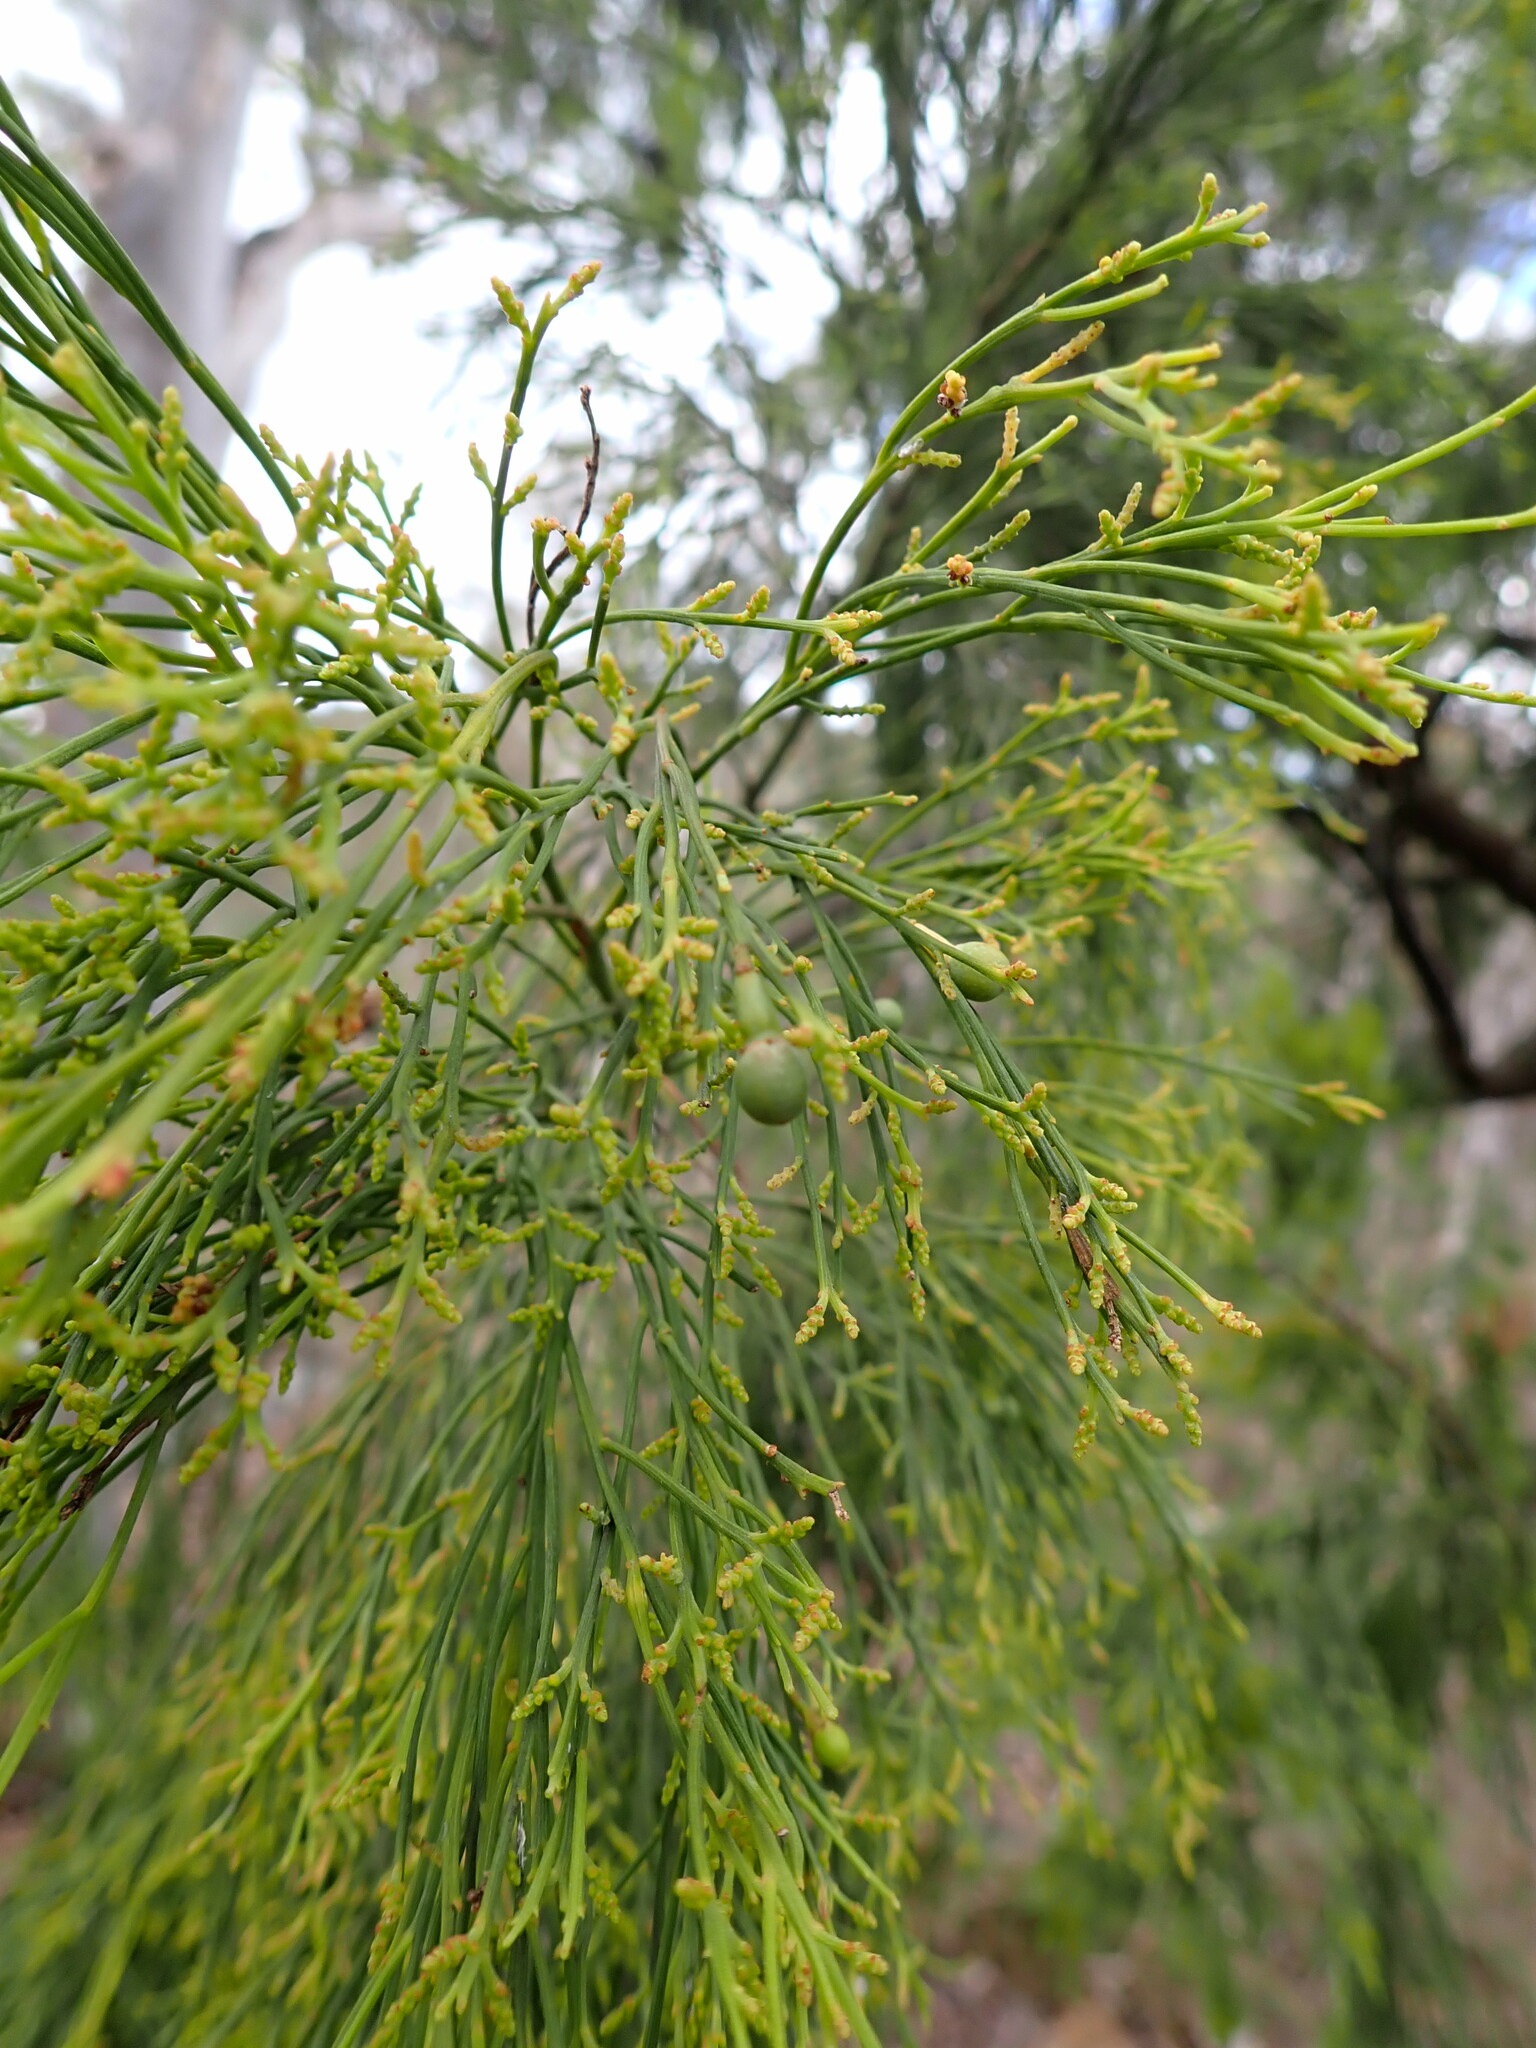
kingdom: Plantae
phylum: Tracheophyta
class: Magnoliopsida
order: Santalales
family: Santalaceae
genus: Exocarpos
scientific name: Exocarpos cupressiformis
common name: Cherry ballart
